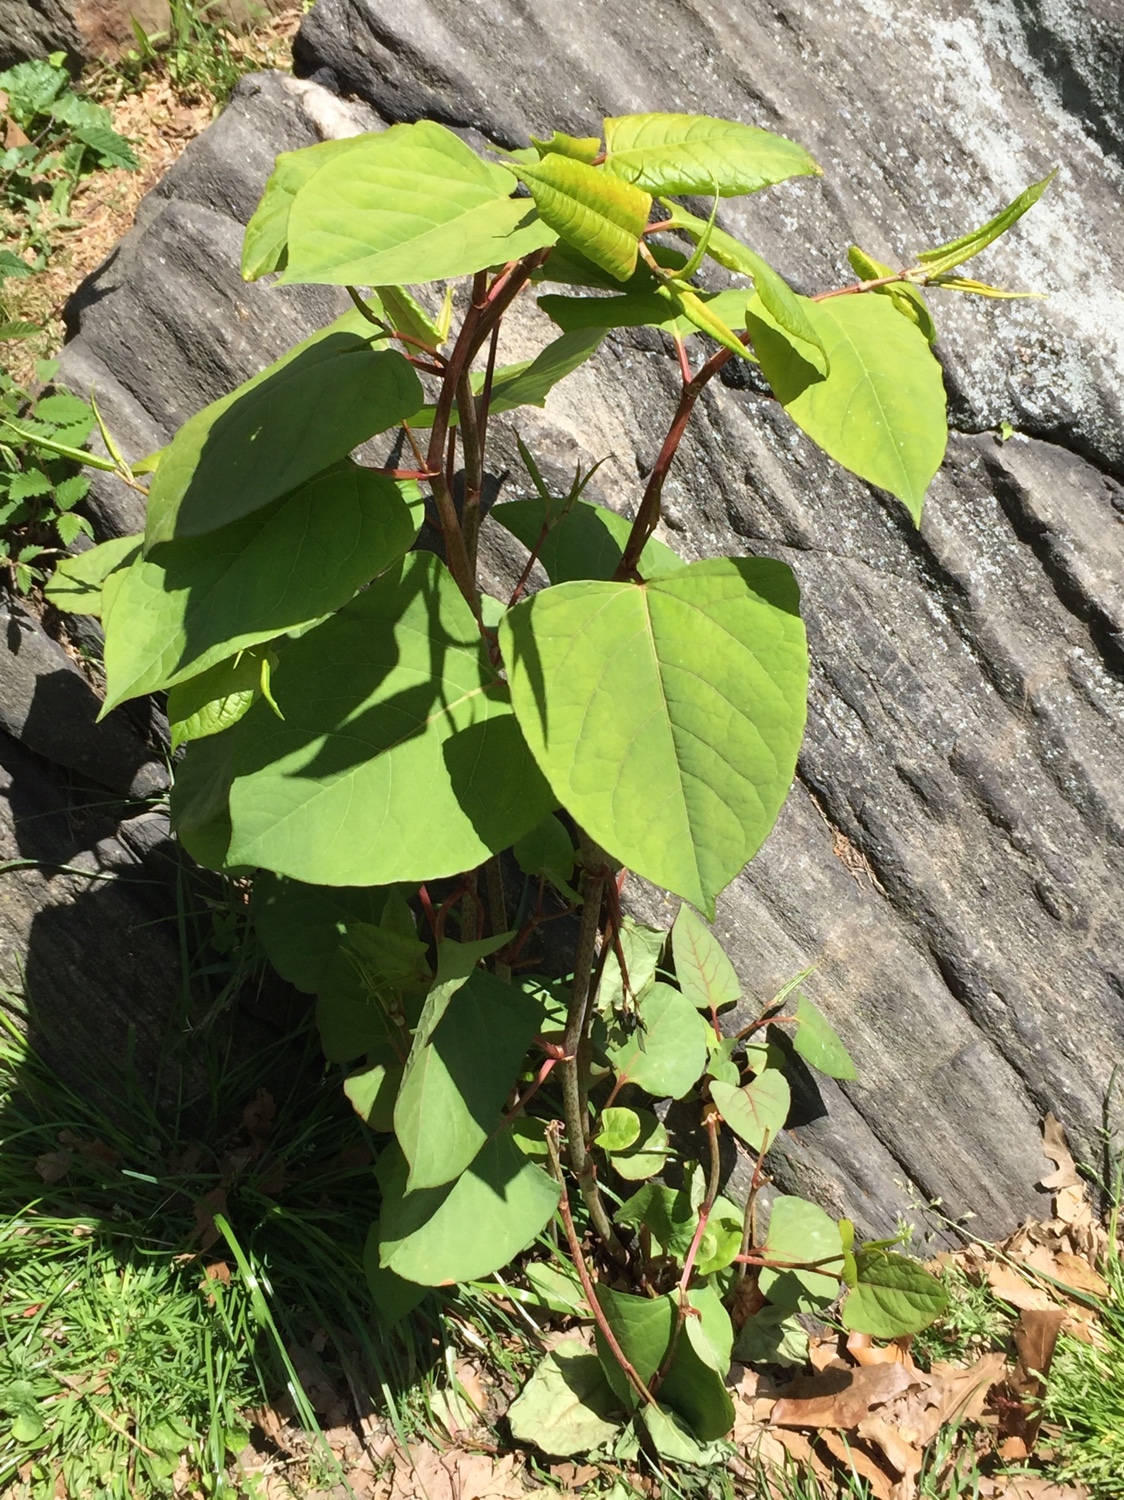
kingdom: Plantae
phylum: Tracheophyta
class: Magnoliopsida
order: Caryophyllales
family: Polygonaceae
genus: Reynoutria
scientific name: Reynoutria japonica
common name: Japanese knotweed
